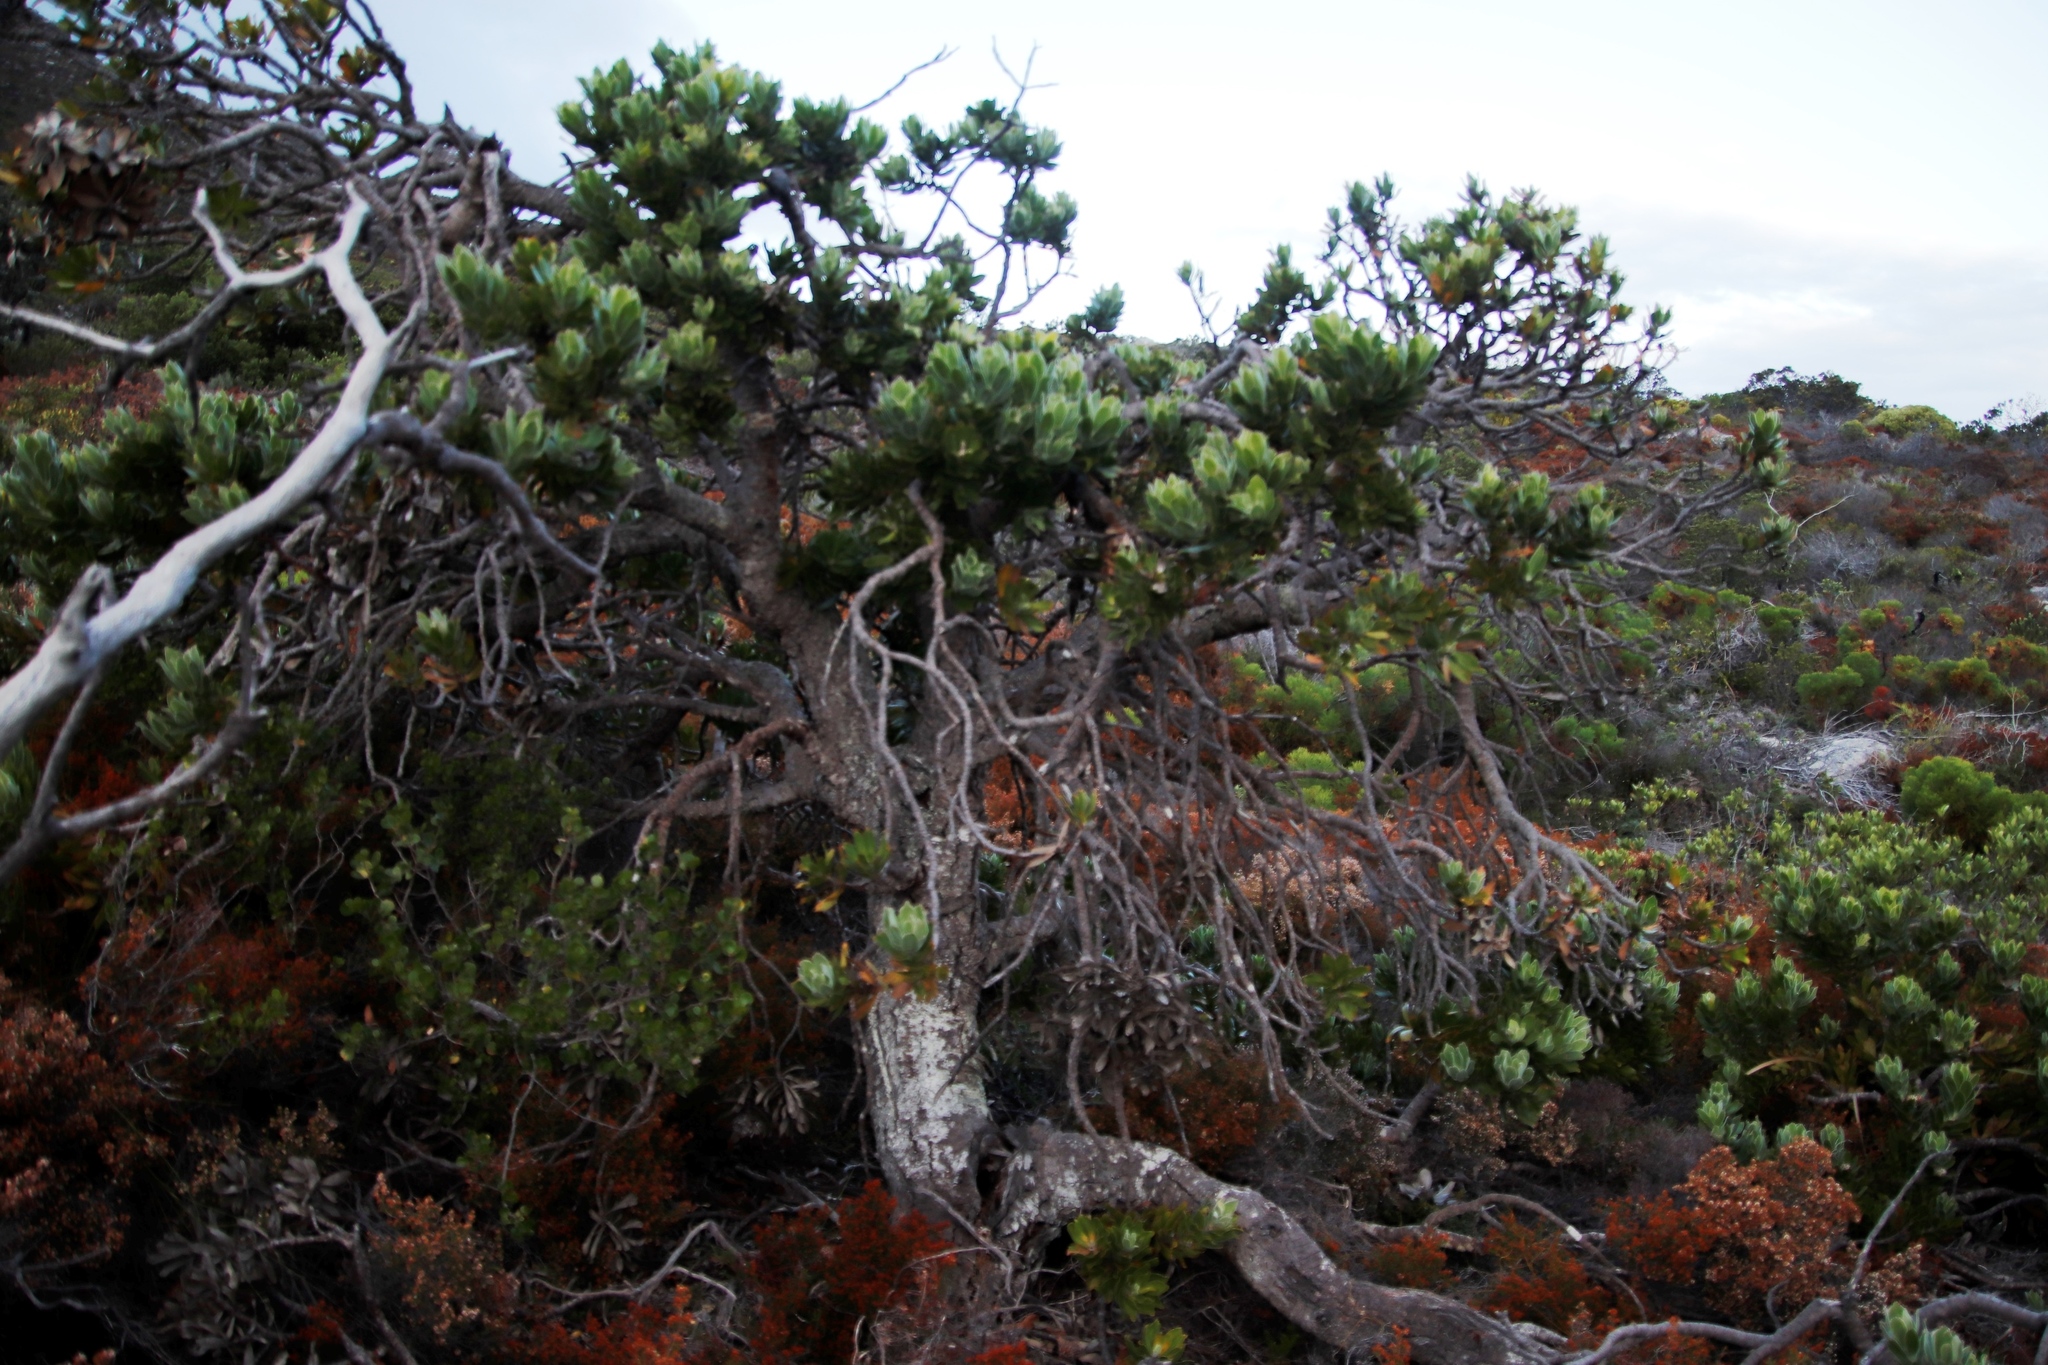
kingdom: Plantae
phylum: Tracheophyta
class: Magnoliopsida
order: Proteales
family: Proteaceae
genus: Leucospermum
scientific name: Leucospermum conocarpodendron
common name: Tree pincushion
